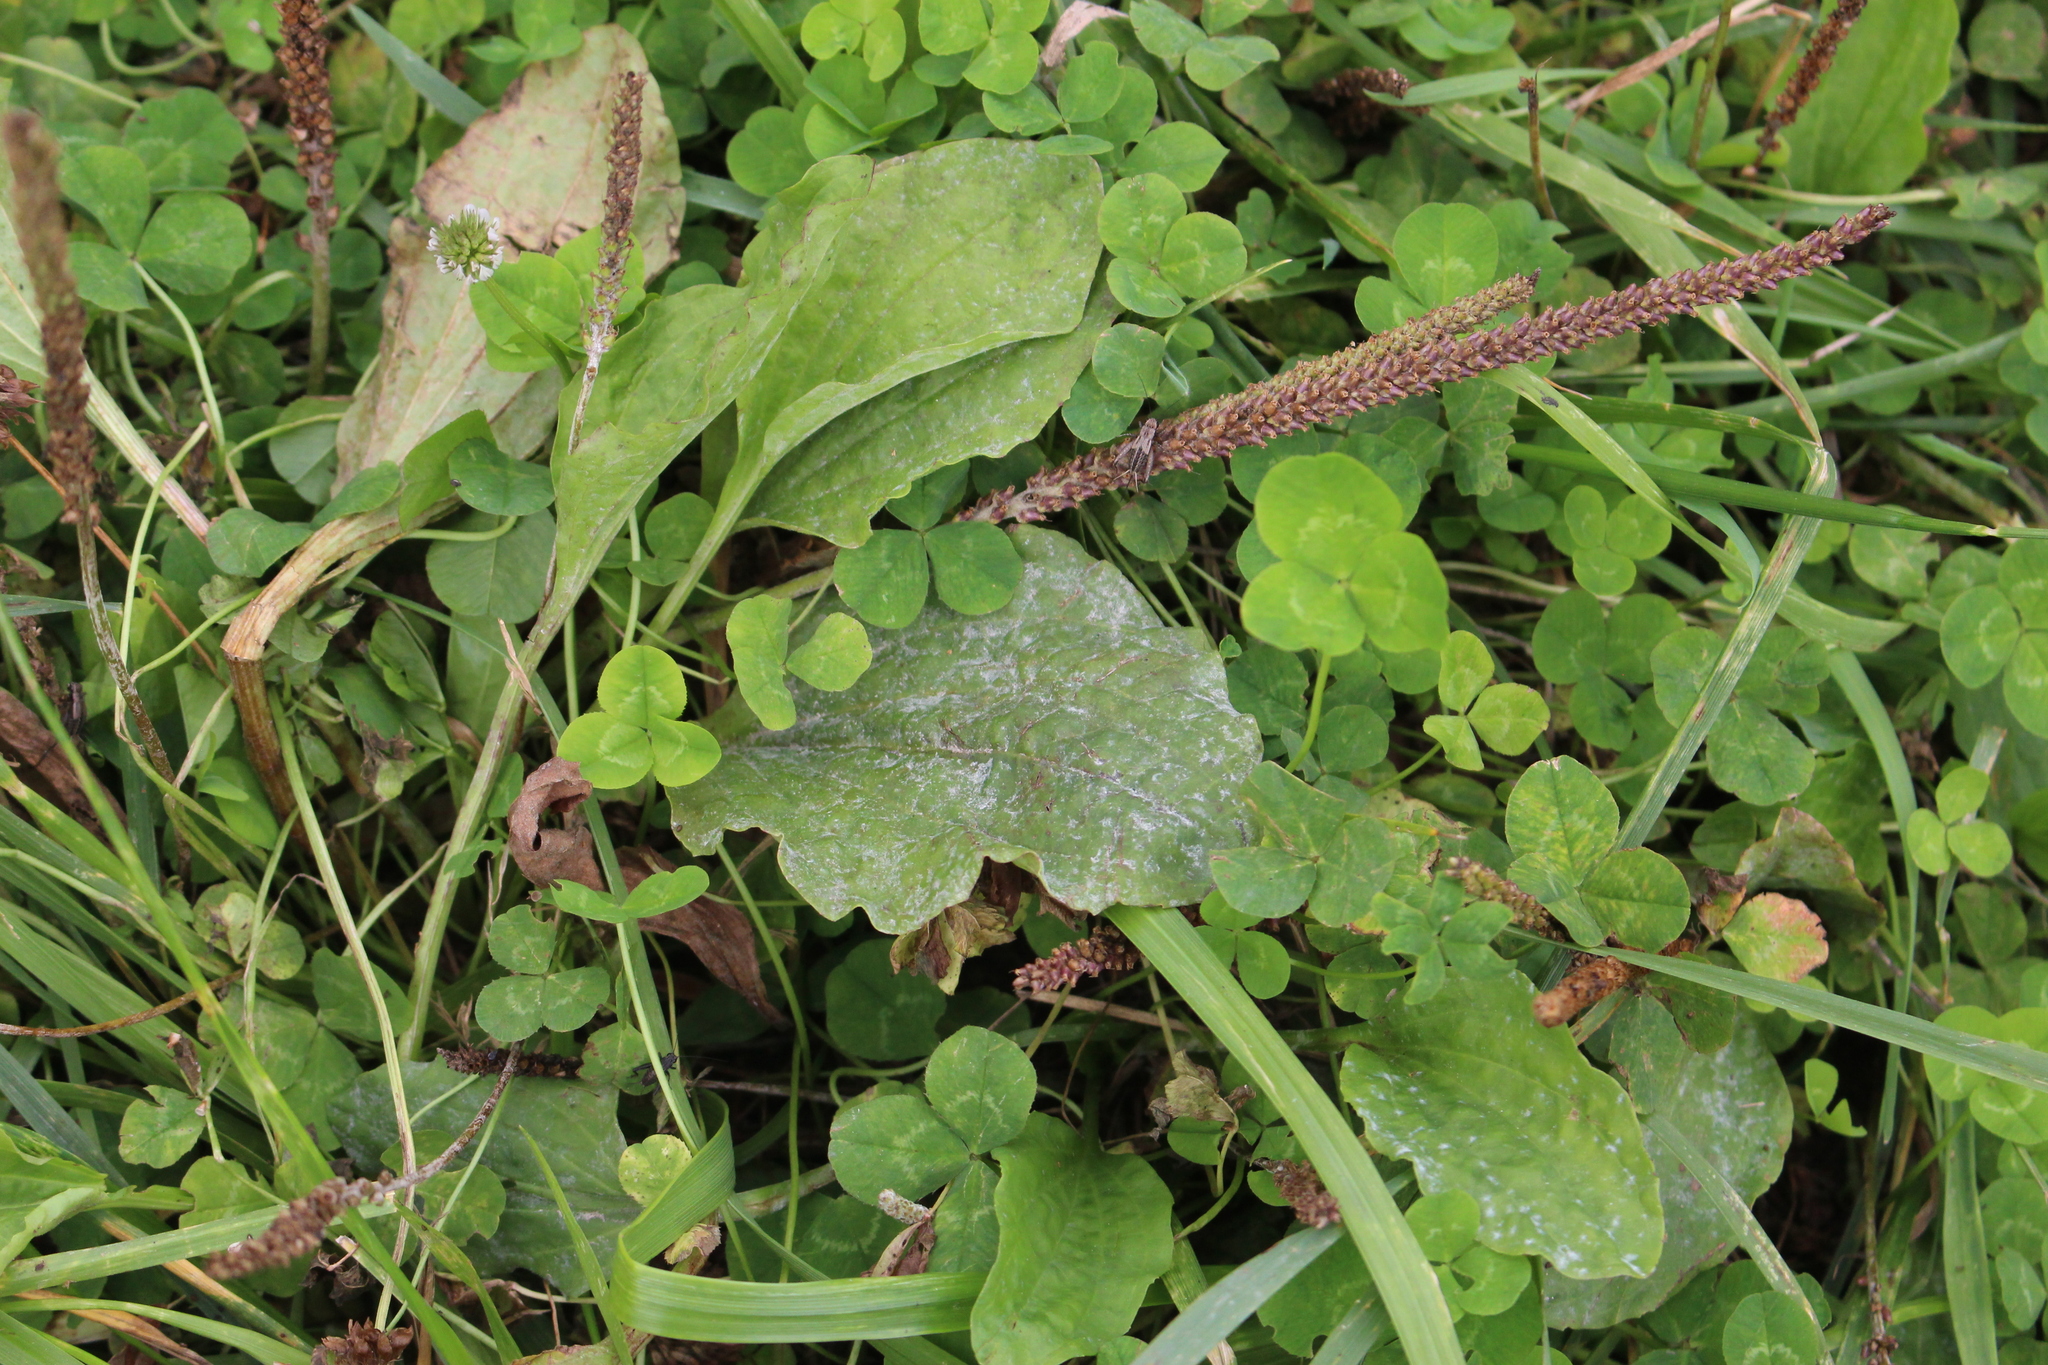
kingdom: Plantae
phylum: Tracheophyta
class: Magnoliopsida
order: Lamiales
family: Plantaginaceae
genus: Plantago
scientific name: Plantago major
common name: Common plantain
